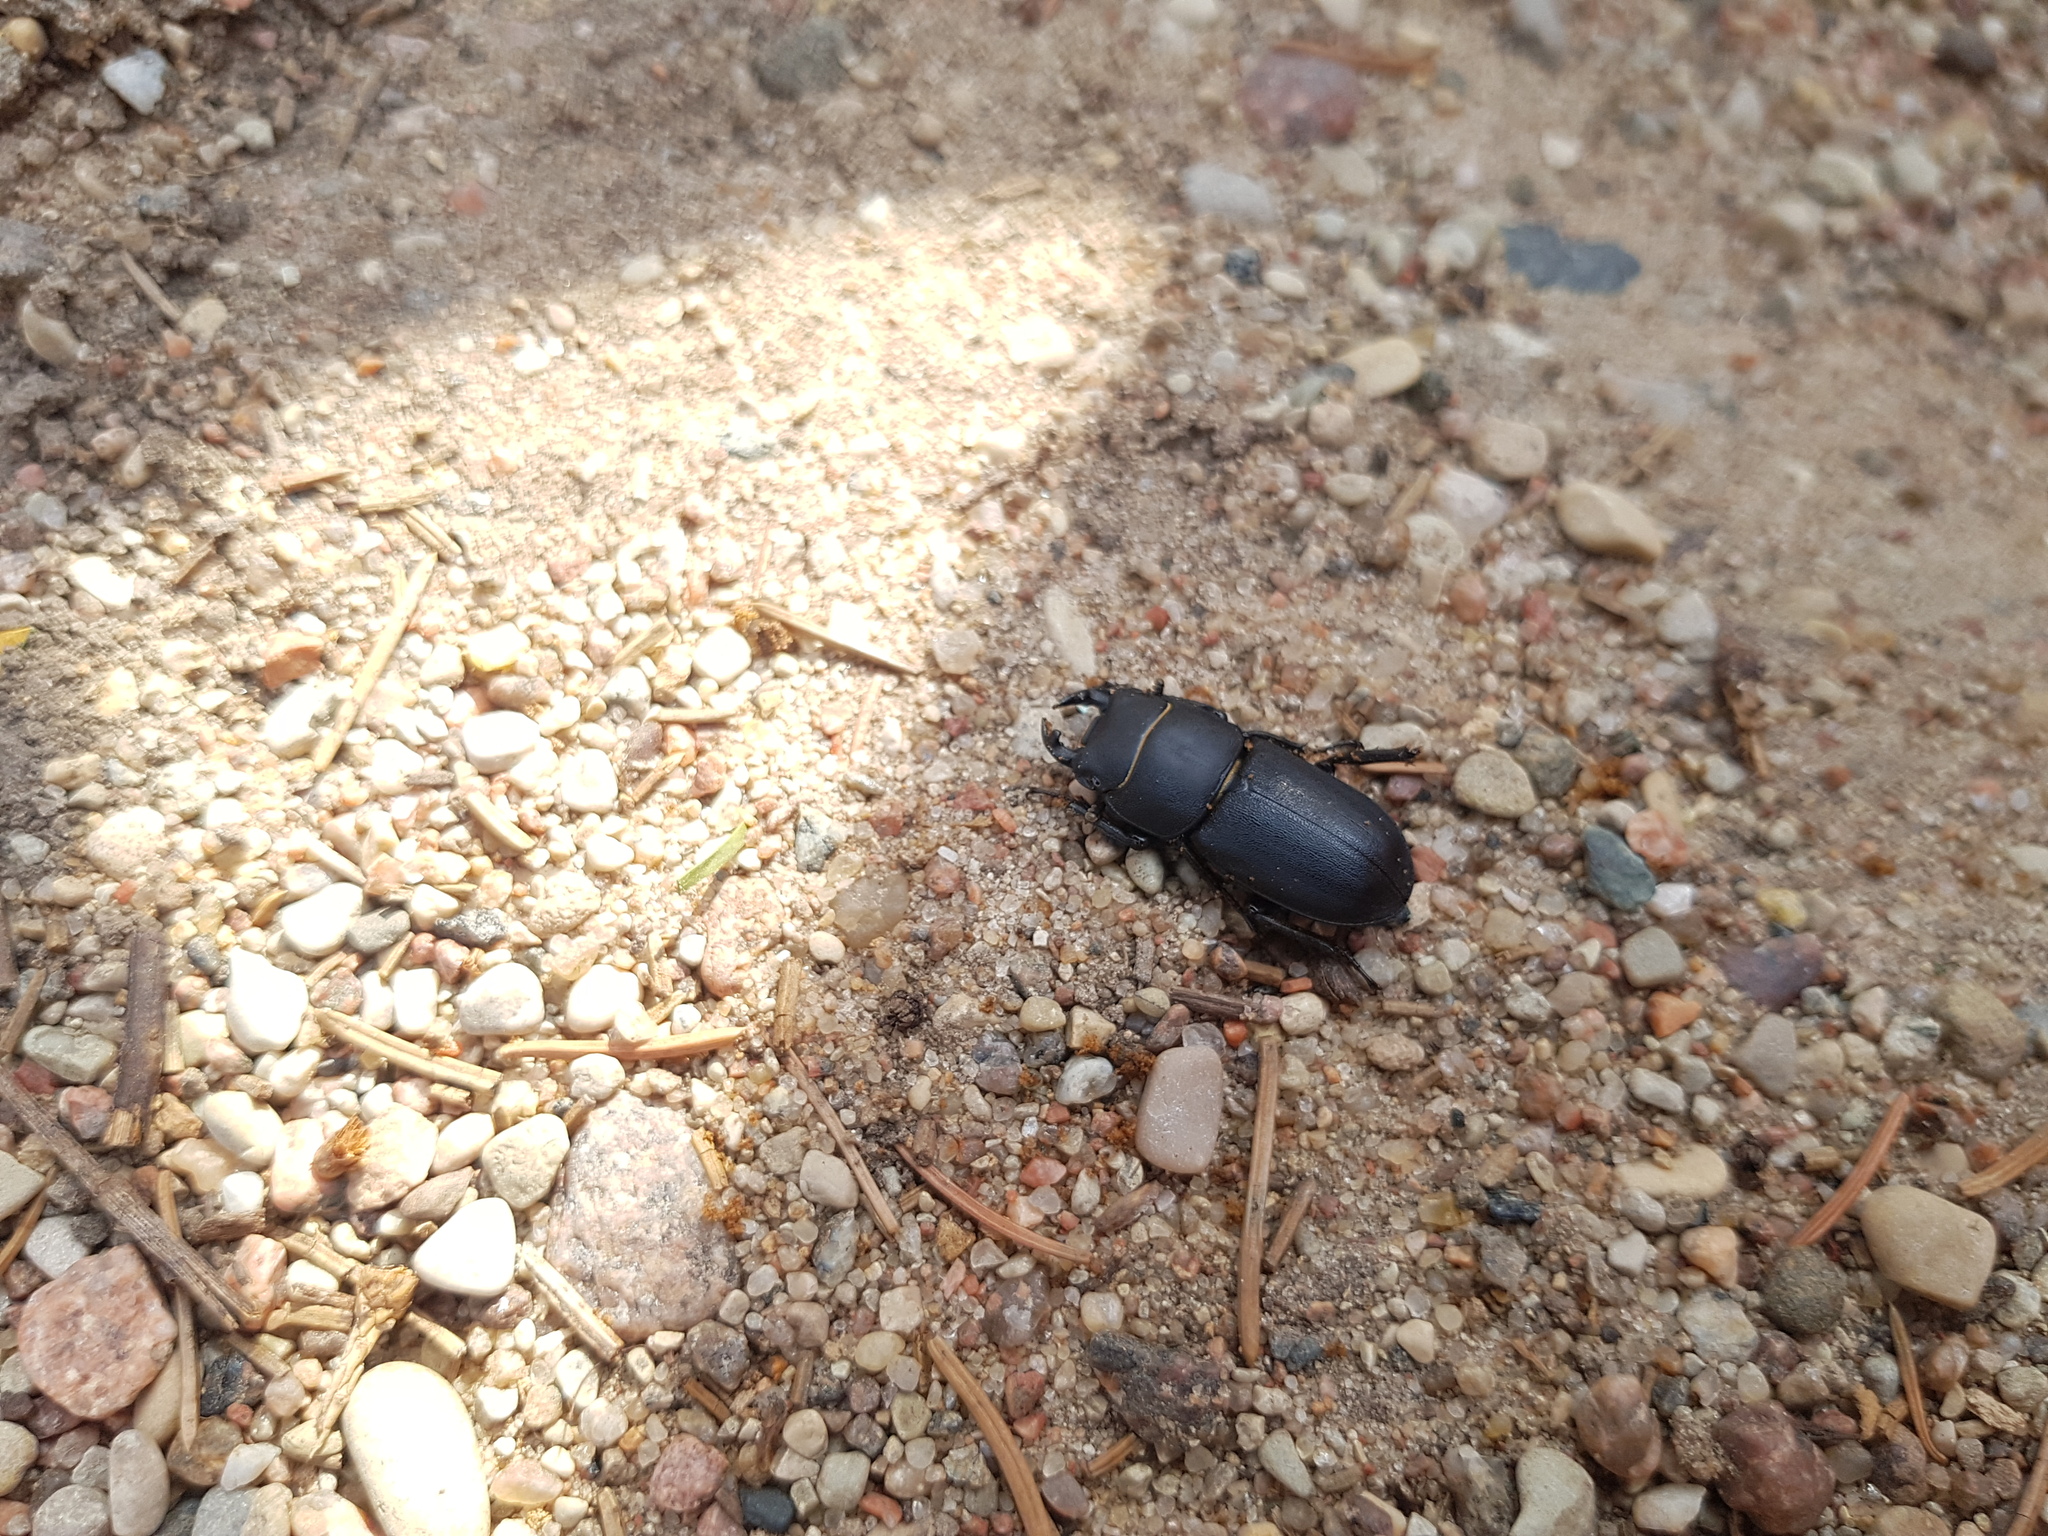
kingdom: Animalia
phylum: Arthropoda
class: Insecta
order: Coleoptera
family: Lucanidae
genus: Dorcus
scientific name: Dorcus parallelipipedus
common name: Lesser stag beetle
